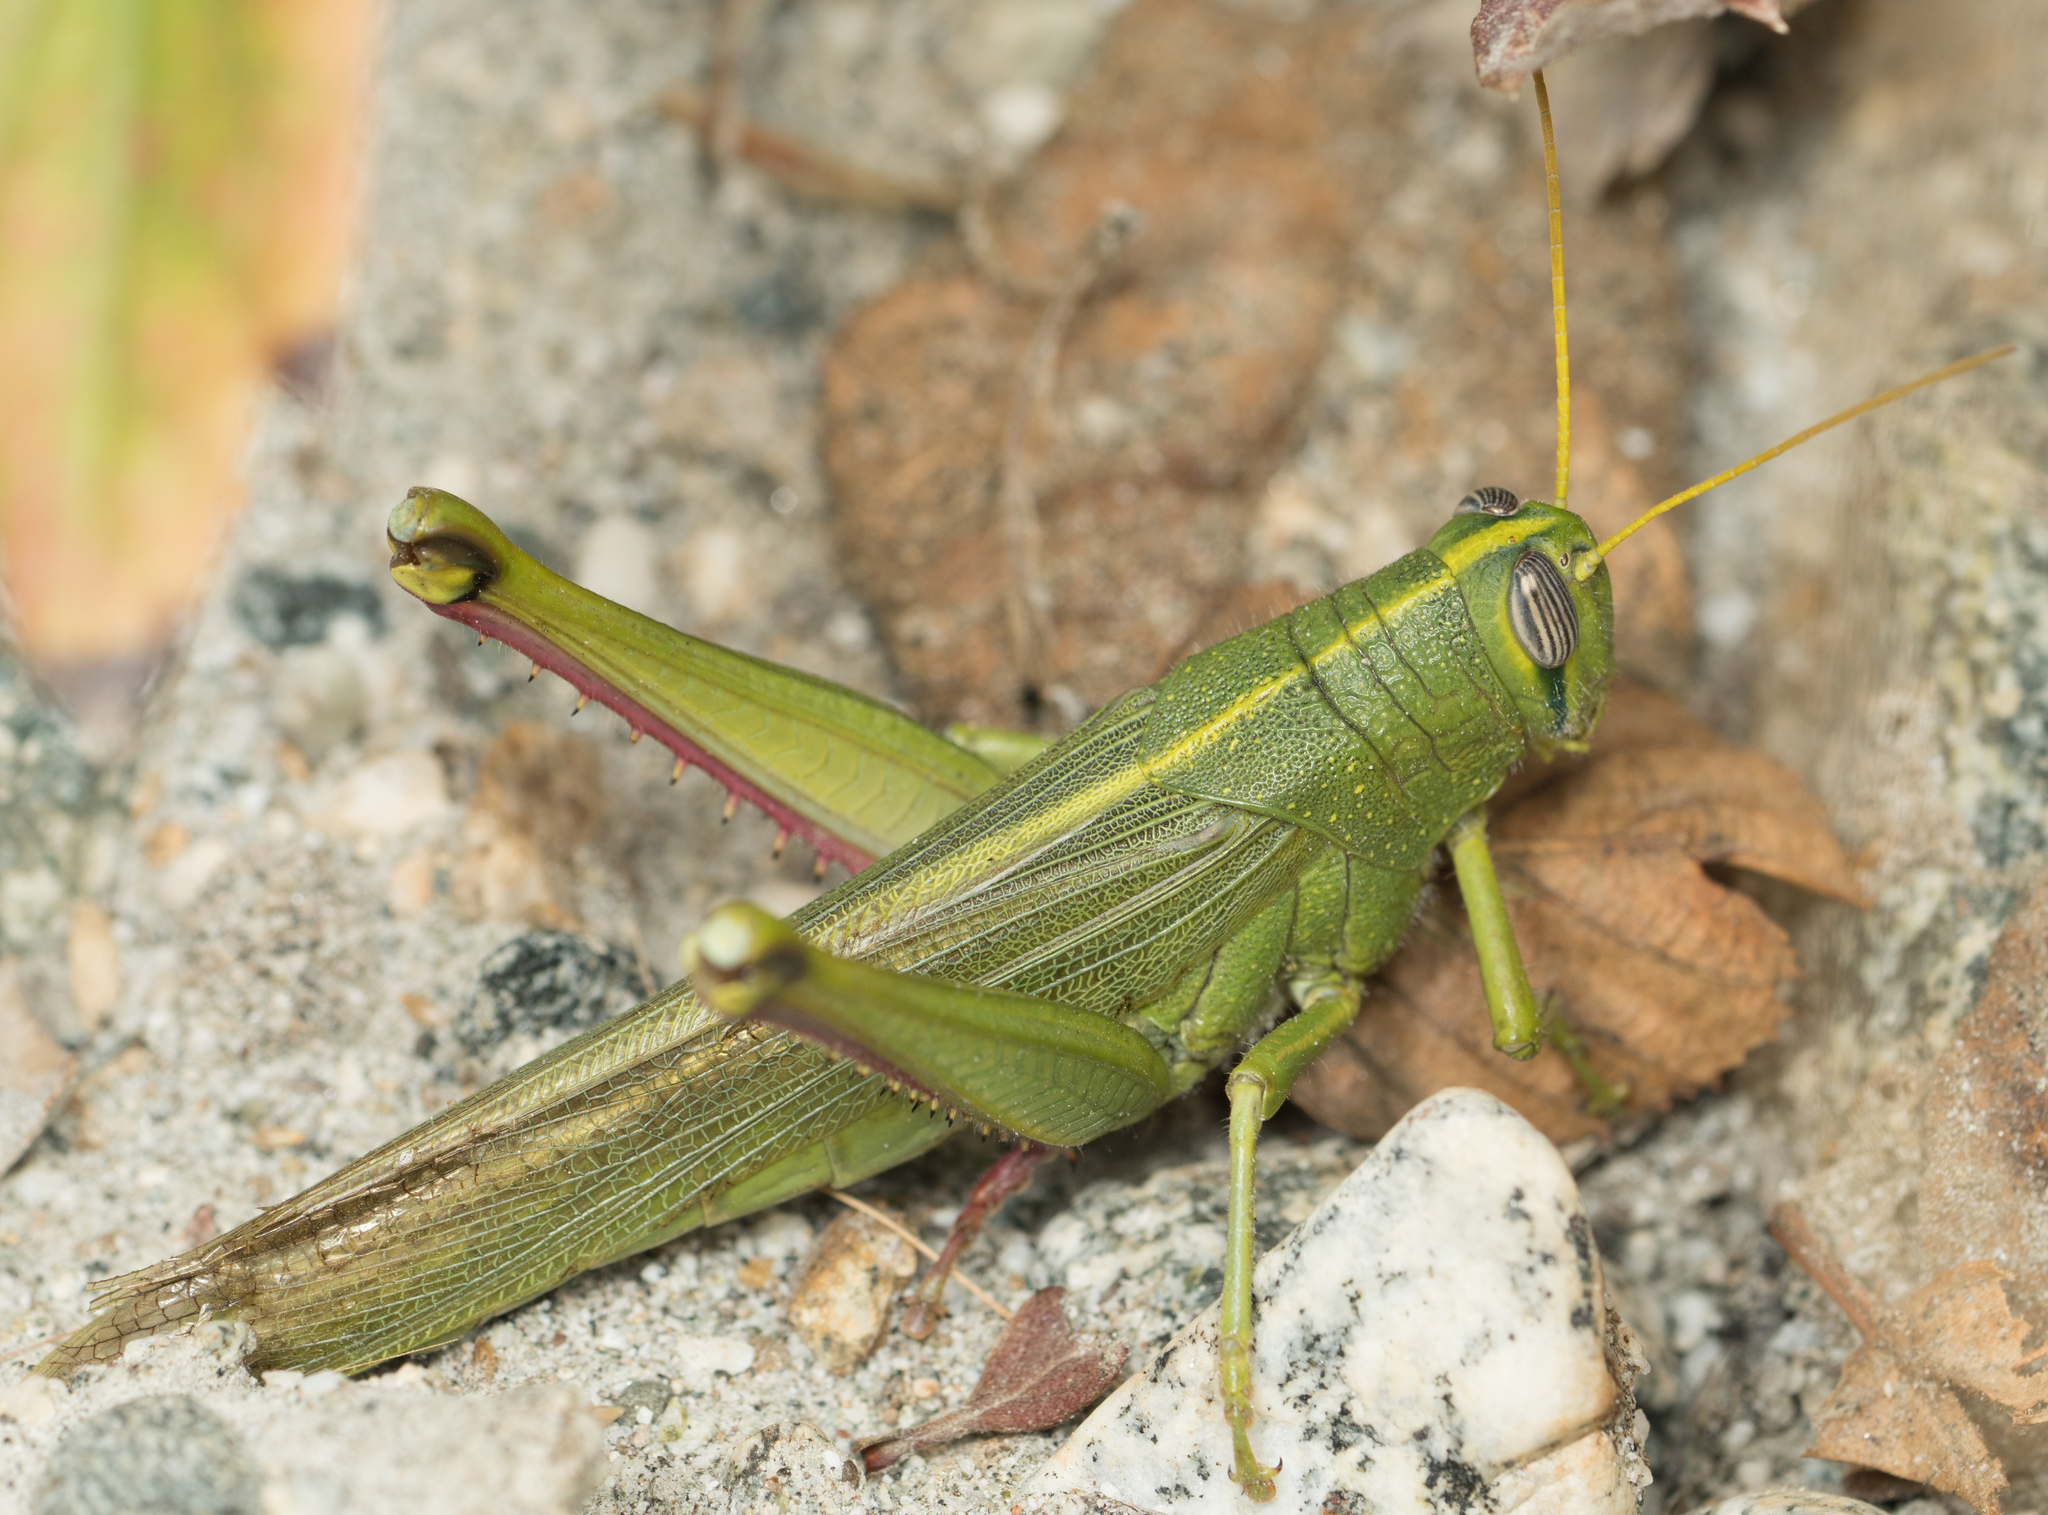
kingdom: Animalia
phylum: Arthropoda
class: Insecta
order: Orthoptera
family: Acrididae
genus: Schistocerca
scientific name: Schistocerca shoshone
